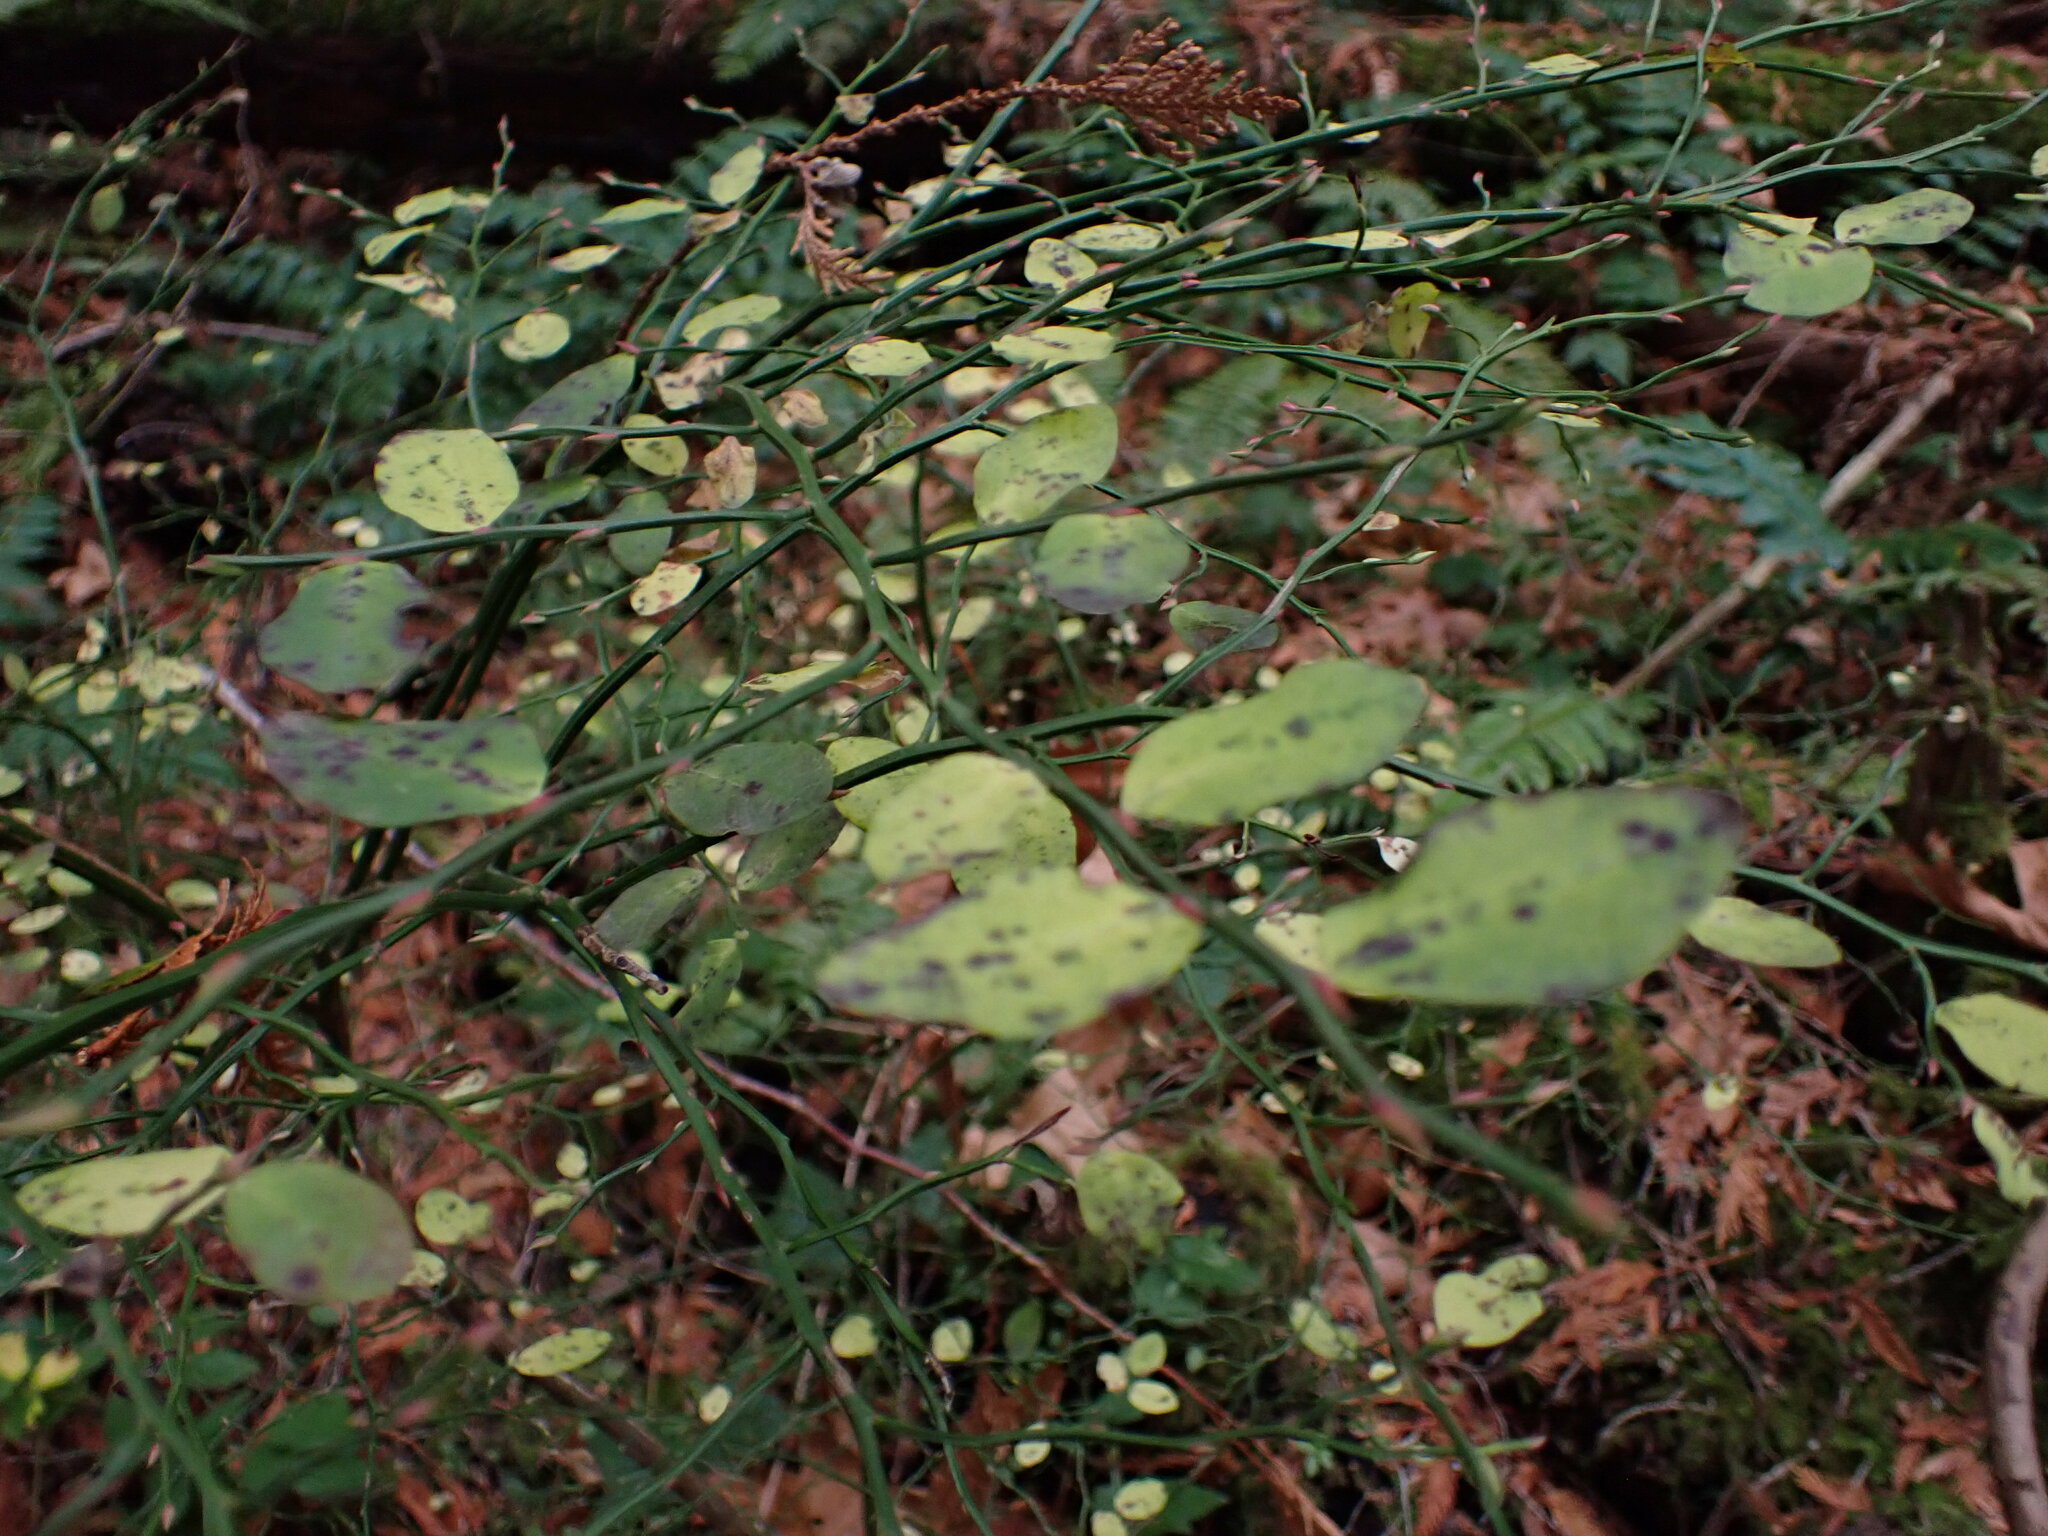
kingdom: Plantae
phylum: Tracheophyta
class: Magnoliopsida
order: Ericales
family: Ericaceae
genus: Vaccinium
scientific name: Vaccinium parvifolium
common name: Red-huckleberry
